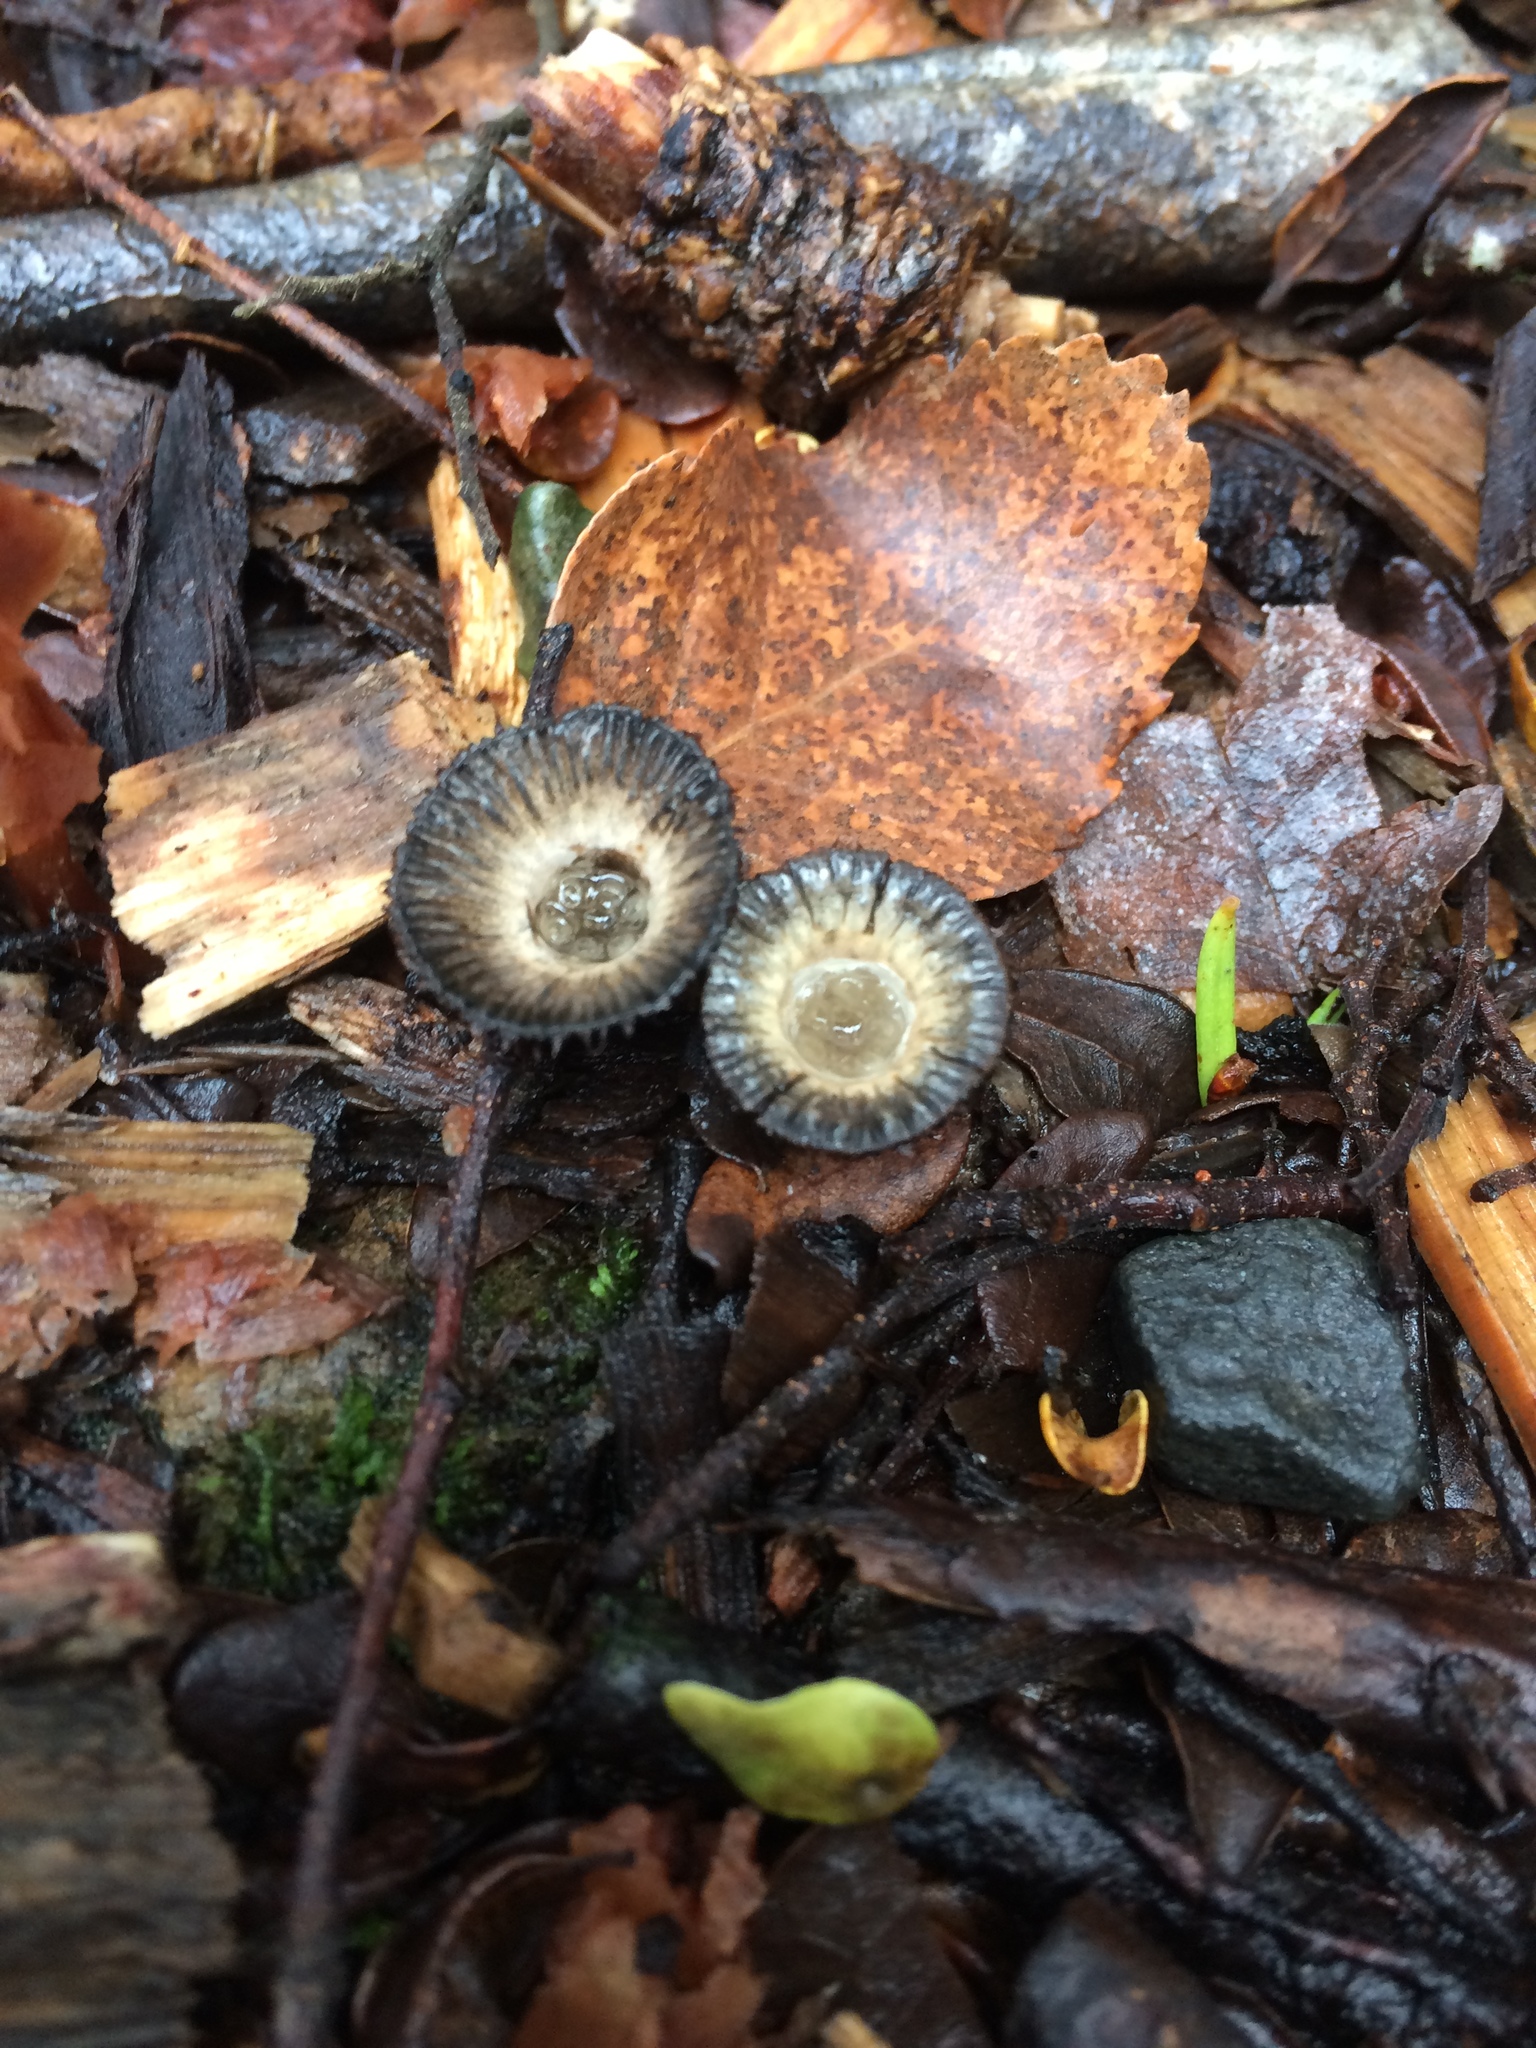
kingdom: Fungi
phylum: Basidiomycota
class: Agaricomycetes
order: Agaricales
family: Agaricaceae
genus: Cyathus
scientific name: Cyathus striatus
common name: Fluted bird's nest
